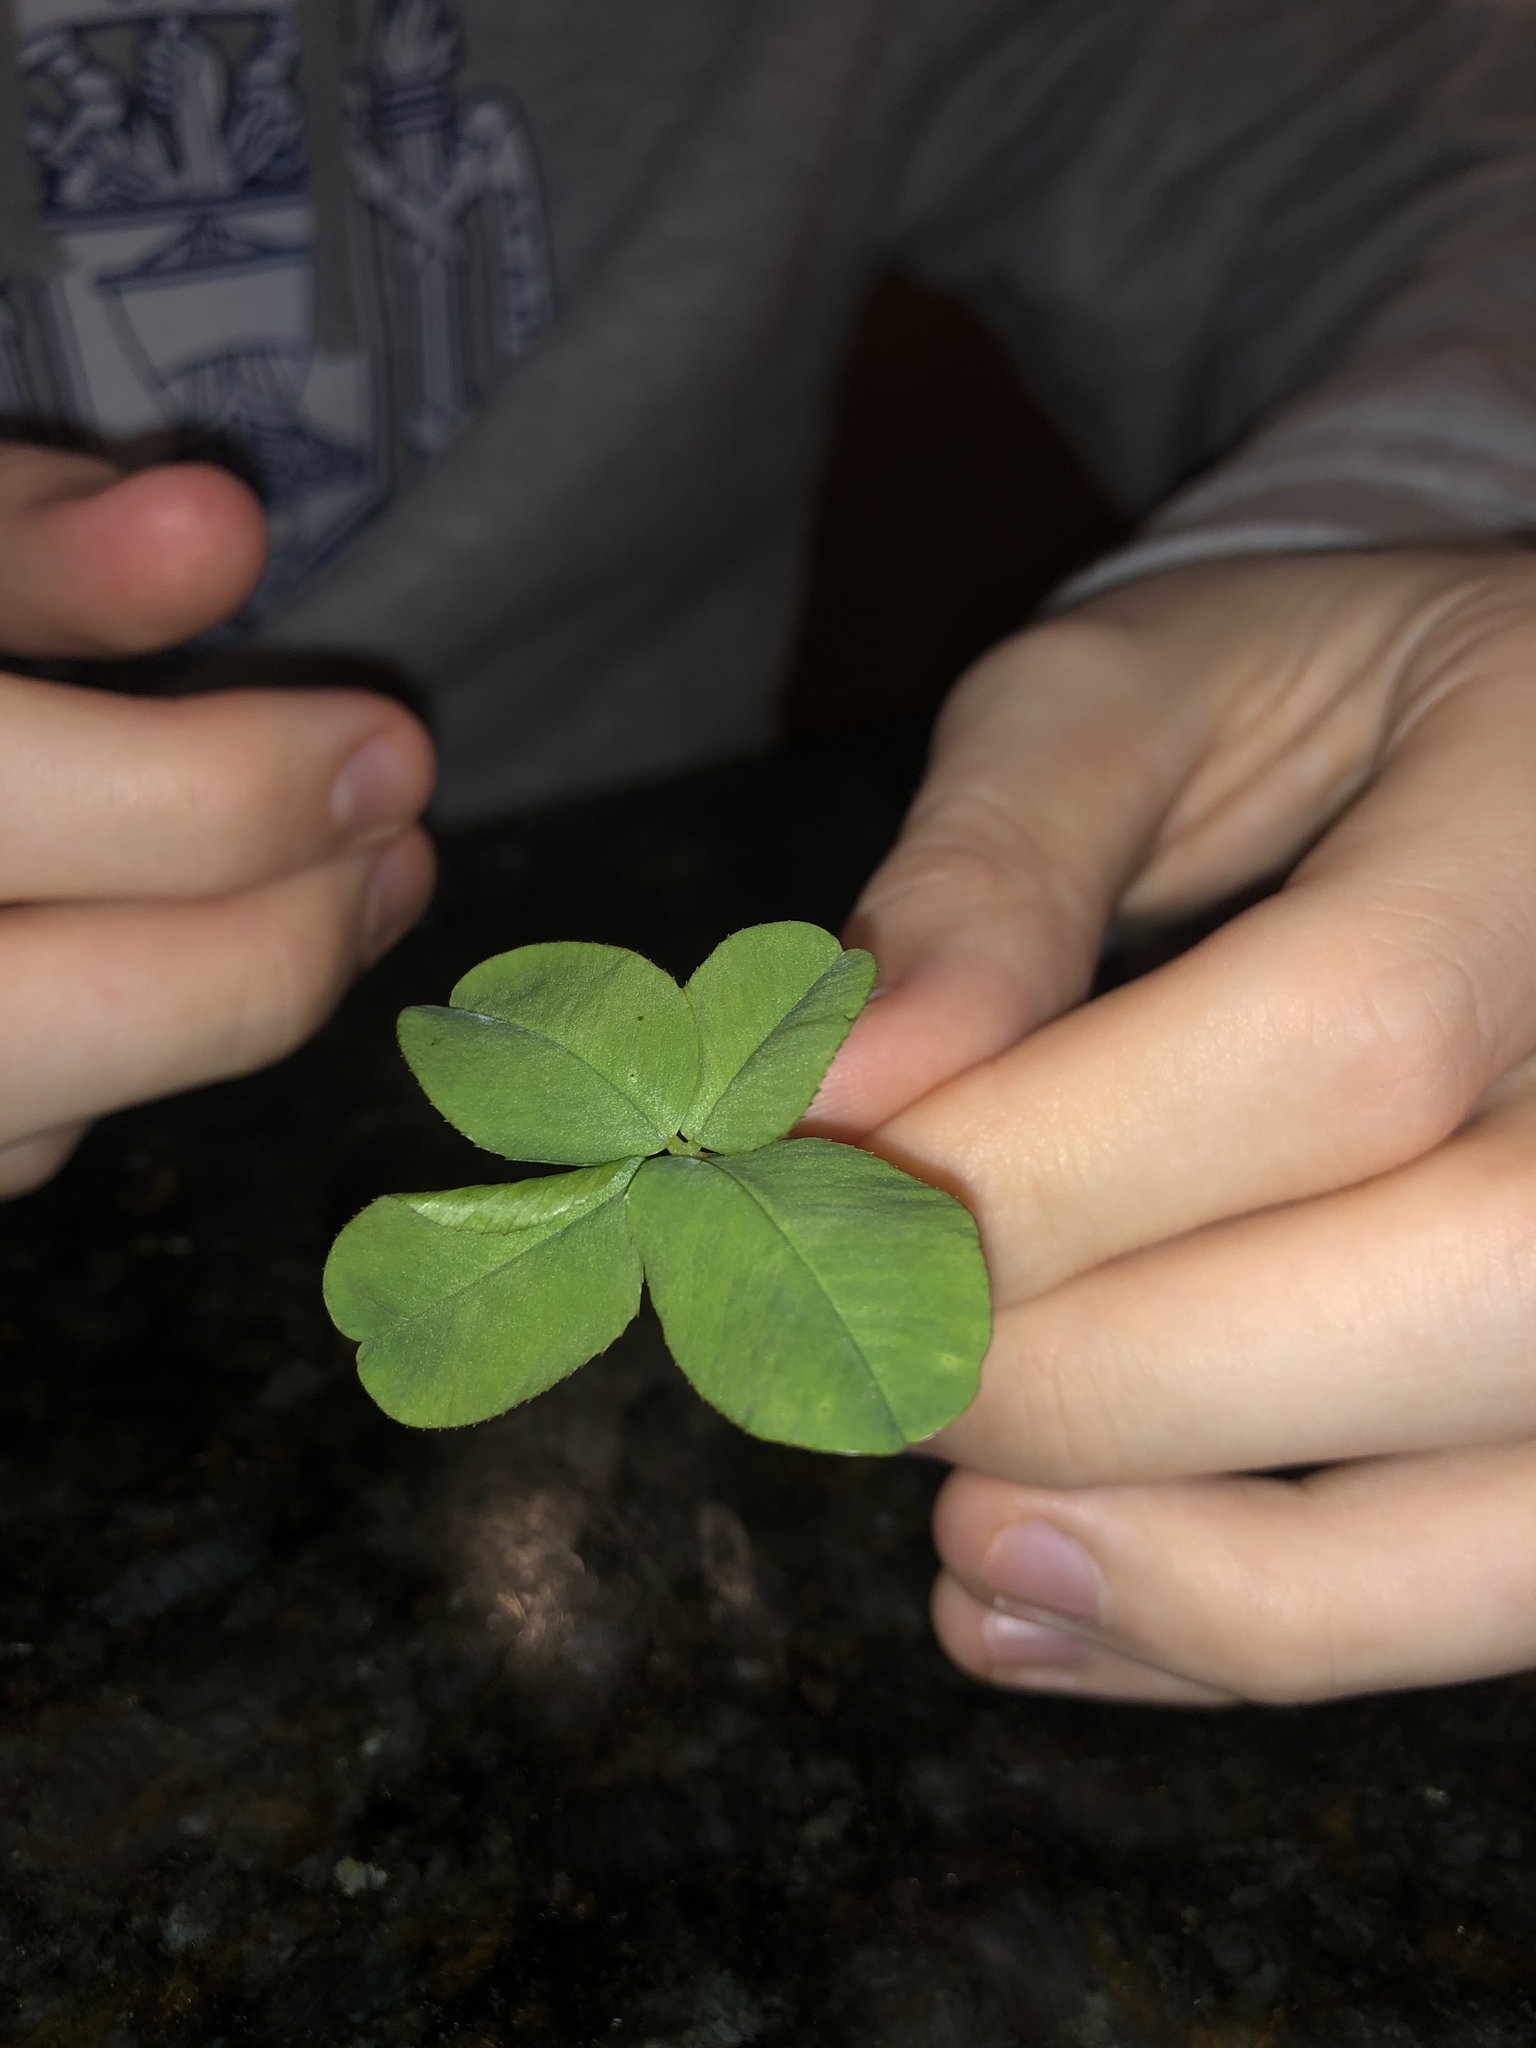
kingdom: Plantae
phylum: Tracheophyta
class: Magnoliopsida
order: Fabales
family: Fabaceae
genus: Trifolium
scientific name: Trifolium repens
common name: White clover
